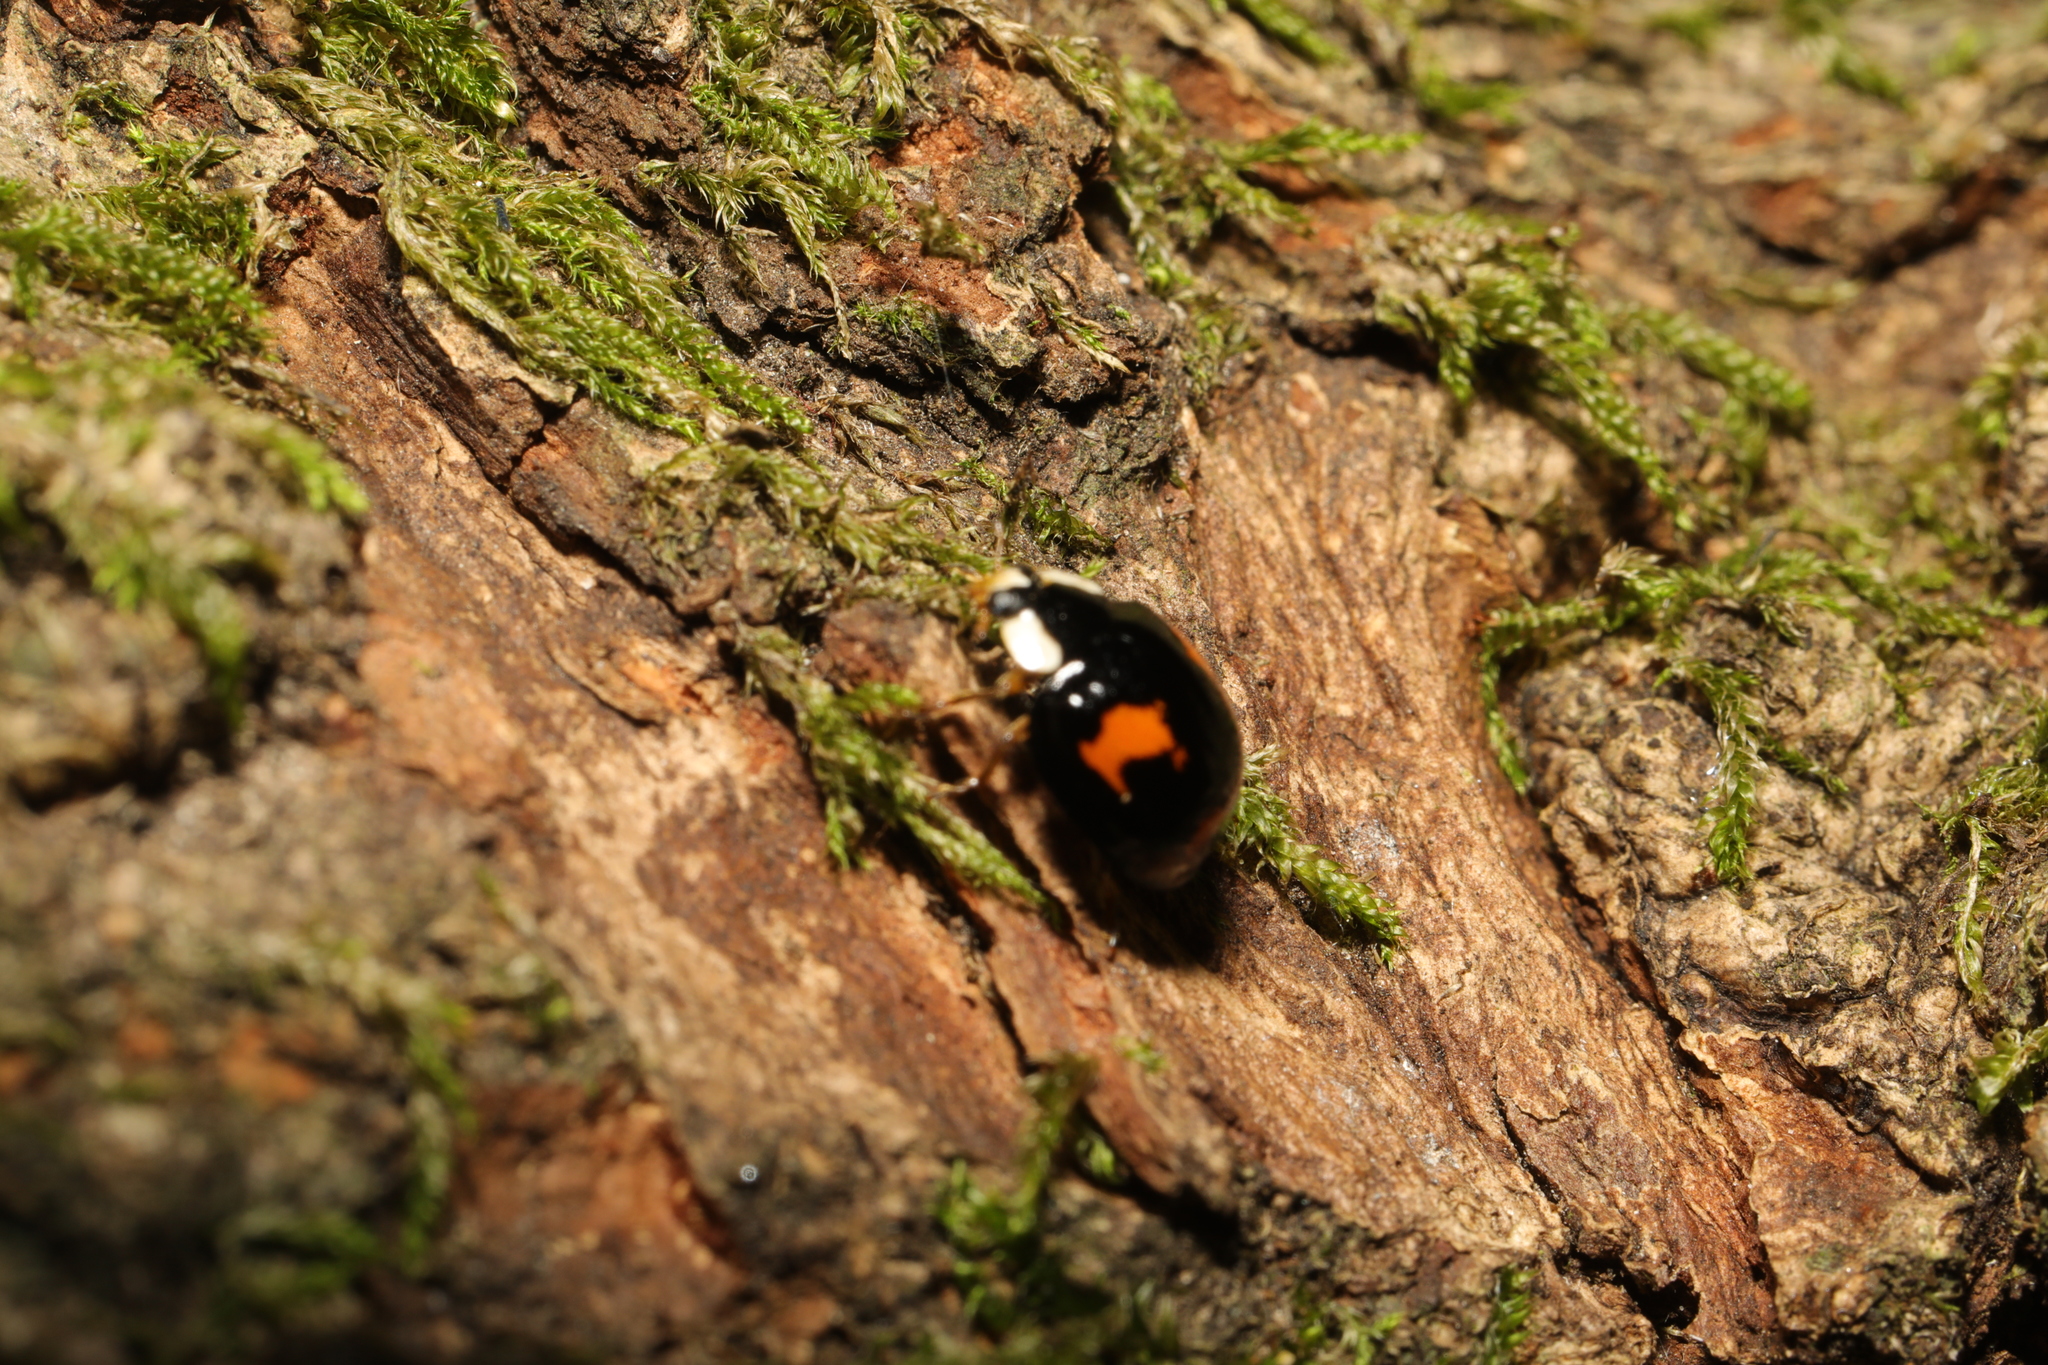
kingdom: Animalia
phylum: Arthropoda
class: Insecta
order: Coleoptera
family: Coccinellidae
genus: Harmonia
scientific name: Harmonia axyridis
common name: Harlequin ladybird
